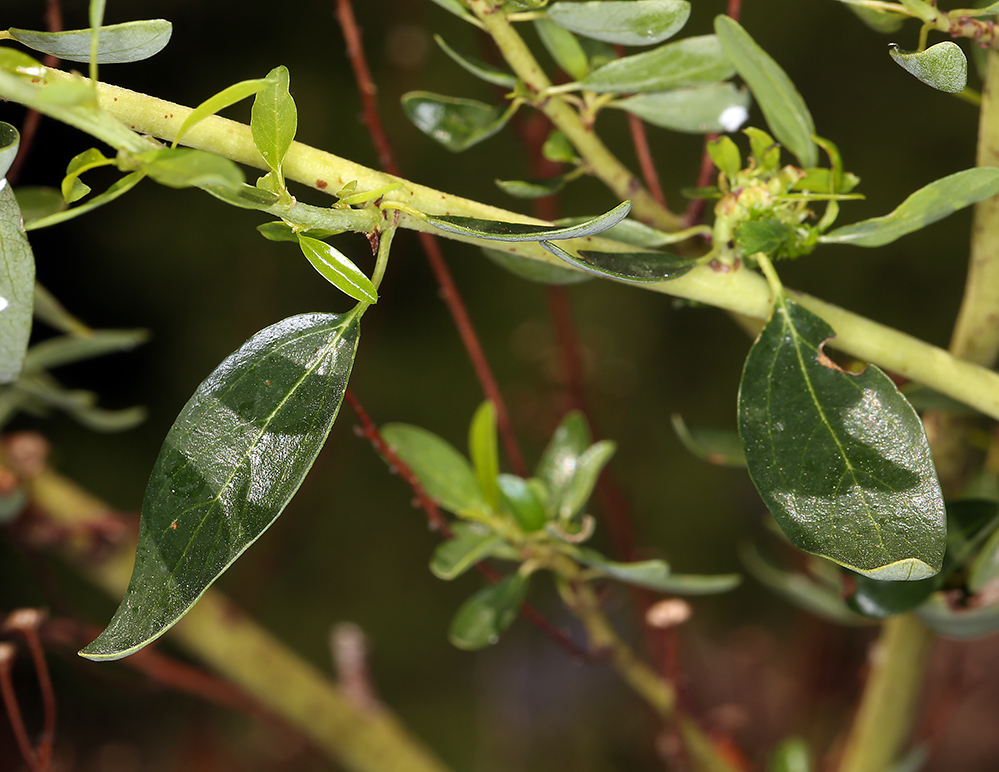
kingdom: Plantae
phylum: Tracheophyta
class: Magnoliopsida
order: Rosales
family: Rhamnaceae
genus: Ceanothus
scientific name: Ceanothus parvifolius
